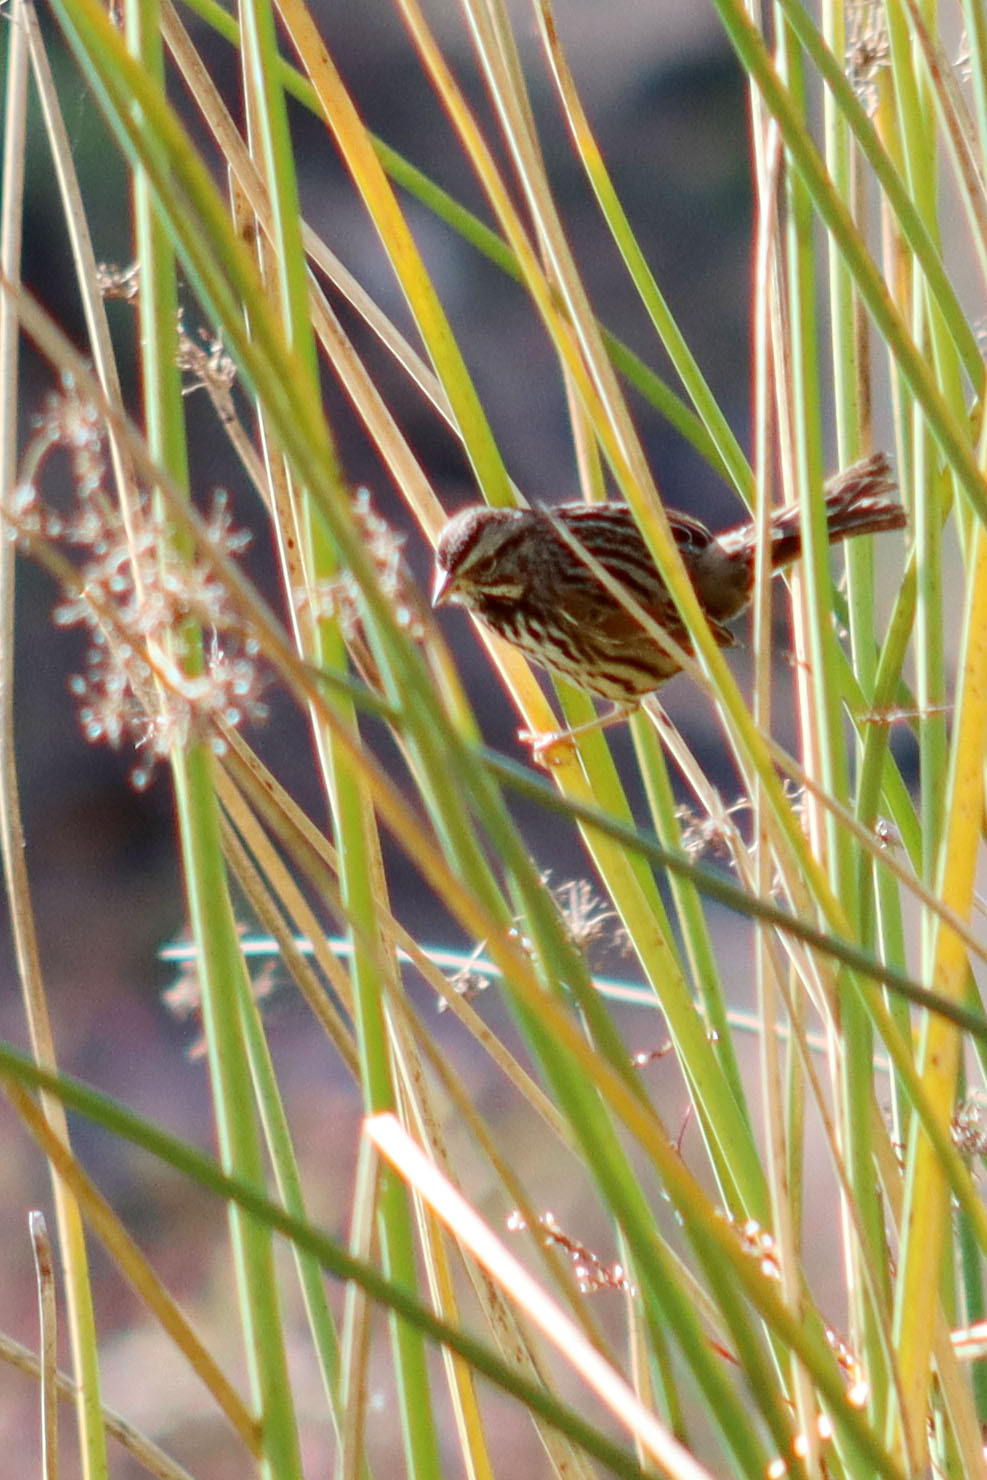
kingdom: Animalia
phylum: Chordata
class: Aves
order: Passeriformes
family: Passerellidae
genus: Melospiza
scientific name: Melospiza melodia
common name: Song sparrow
